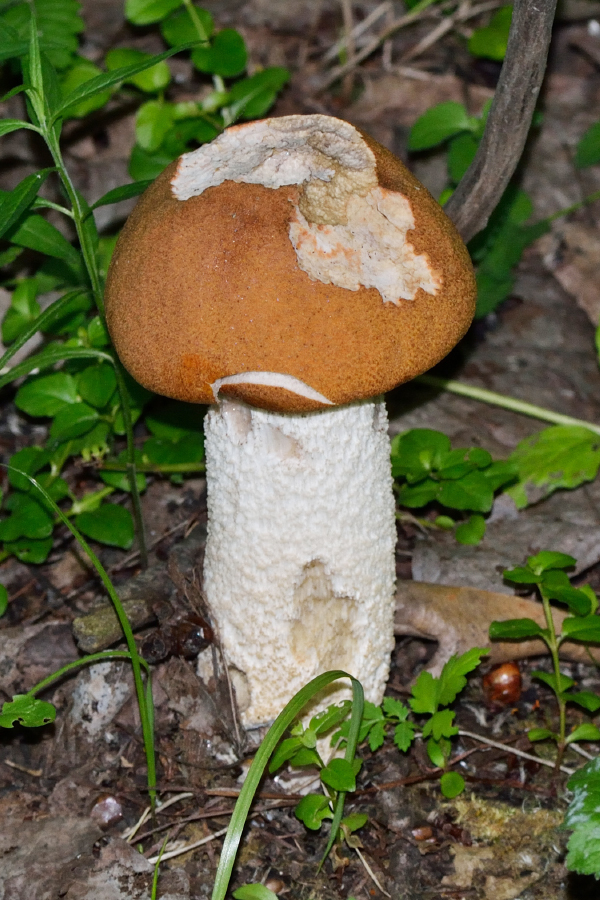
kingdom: Fungi
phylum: Basidiomycota
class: Agaricomycetes
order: Boletales
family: Boletaceae
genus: Leccinum
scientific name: Leccinum albostipitatum
